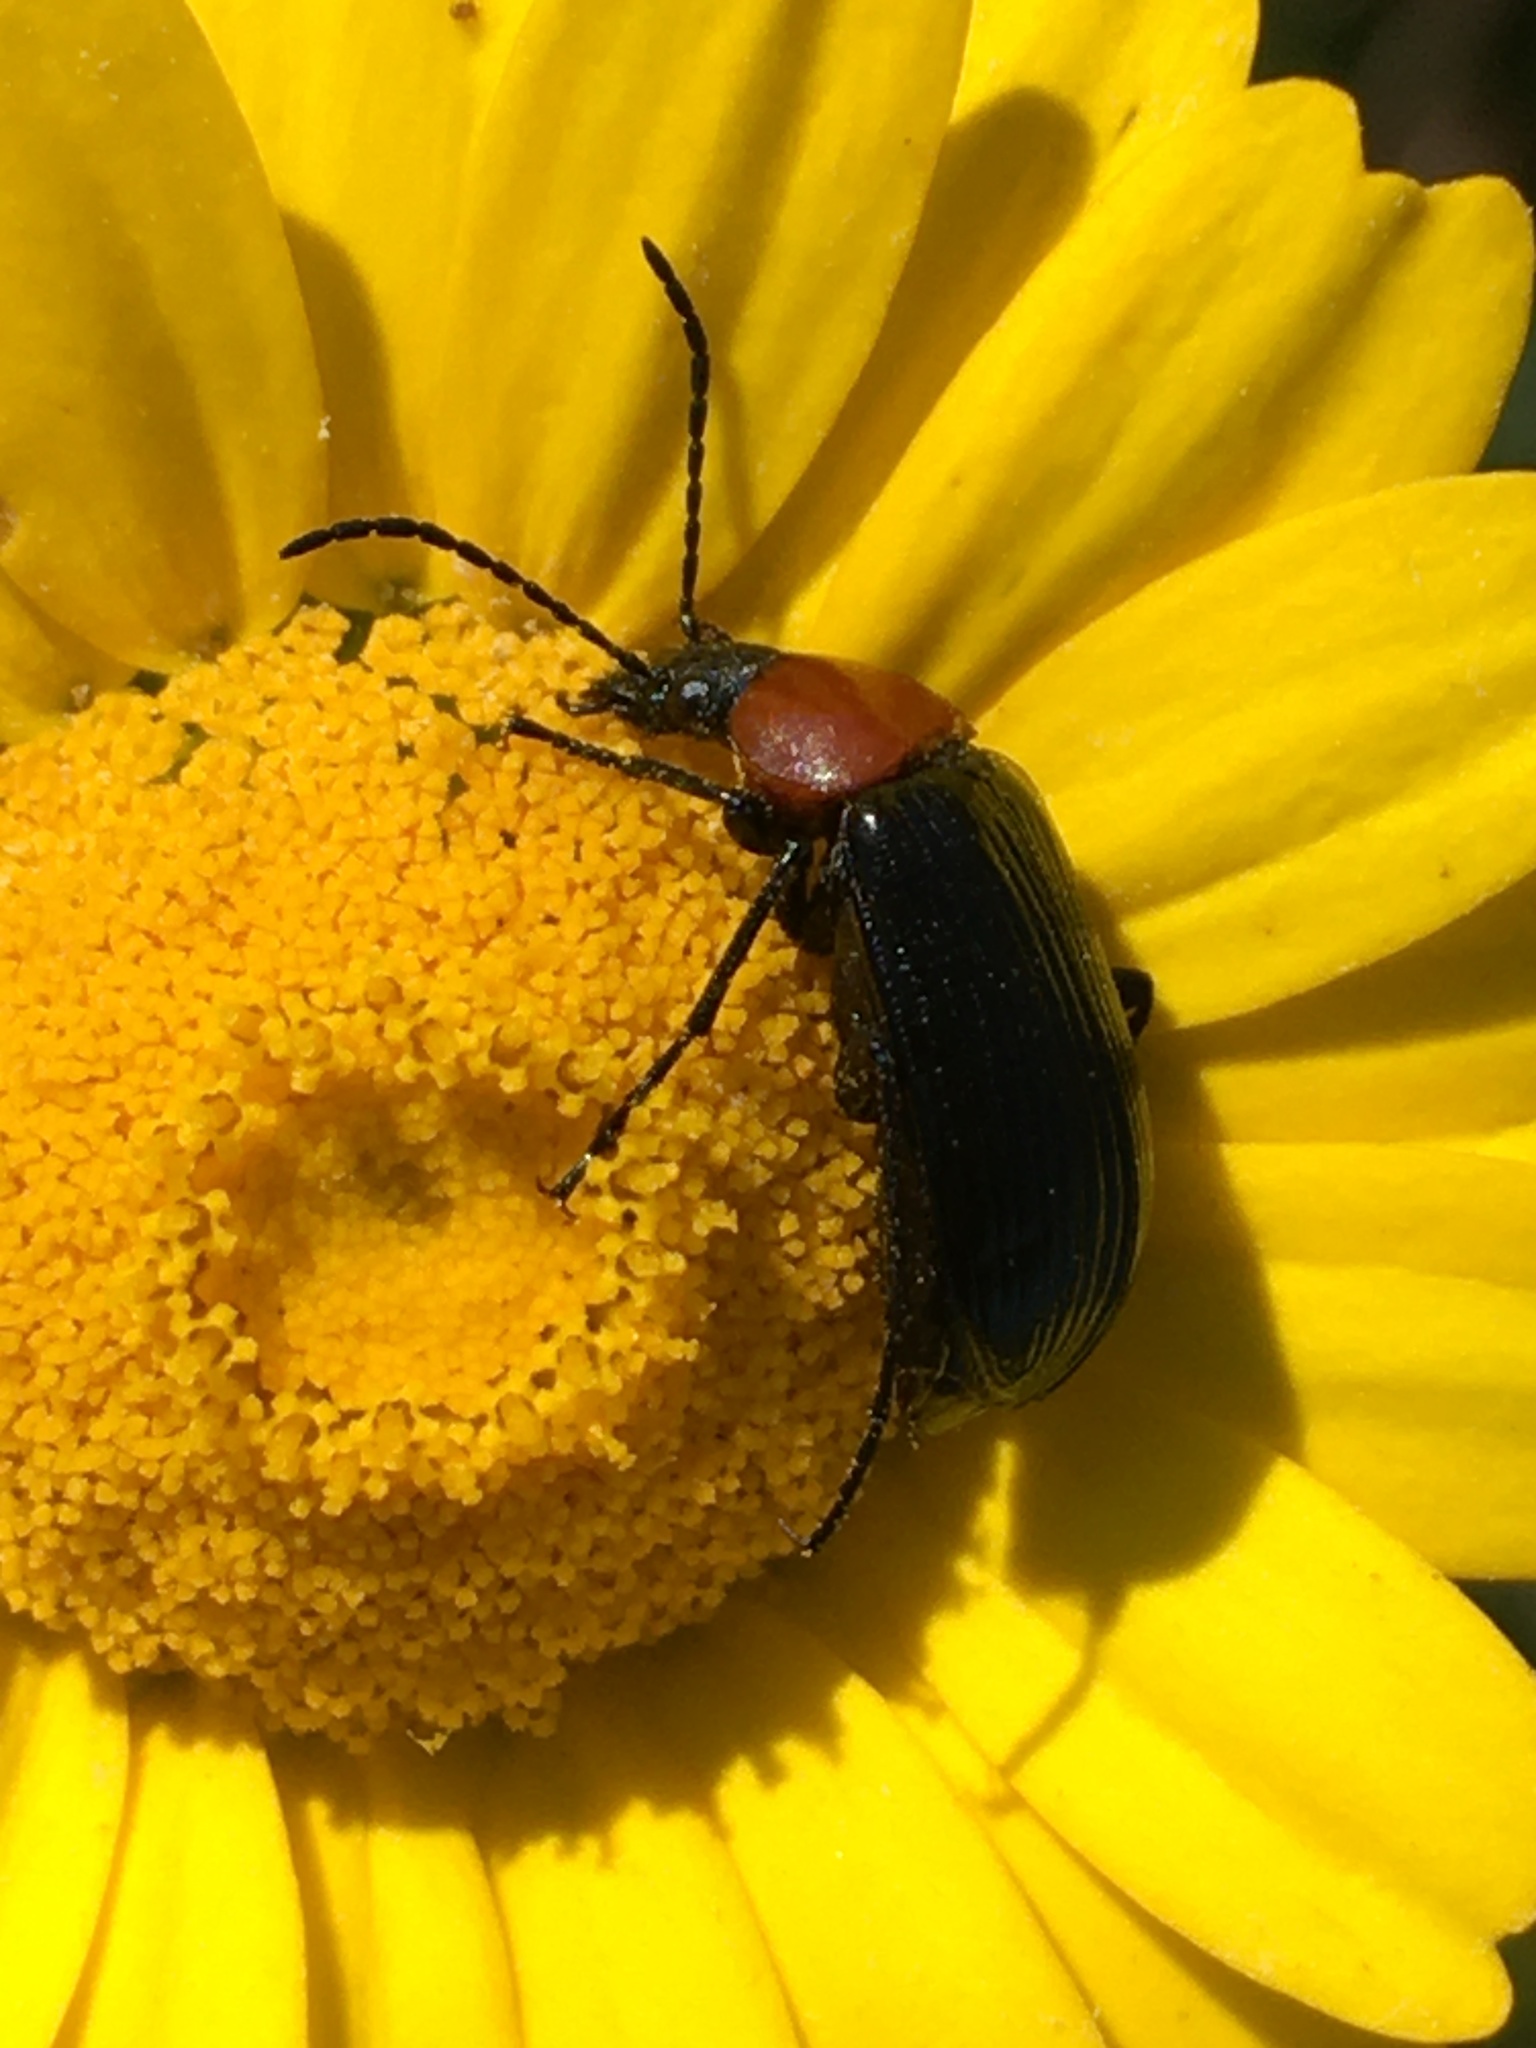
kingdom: Animalia
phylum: Arthropoda
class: Insecta
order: Coleoptera
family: Tenebrionidae
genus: Heliotaurus
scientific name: Heliotaurus ruficollis
